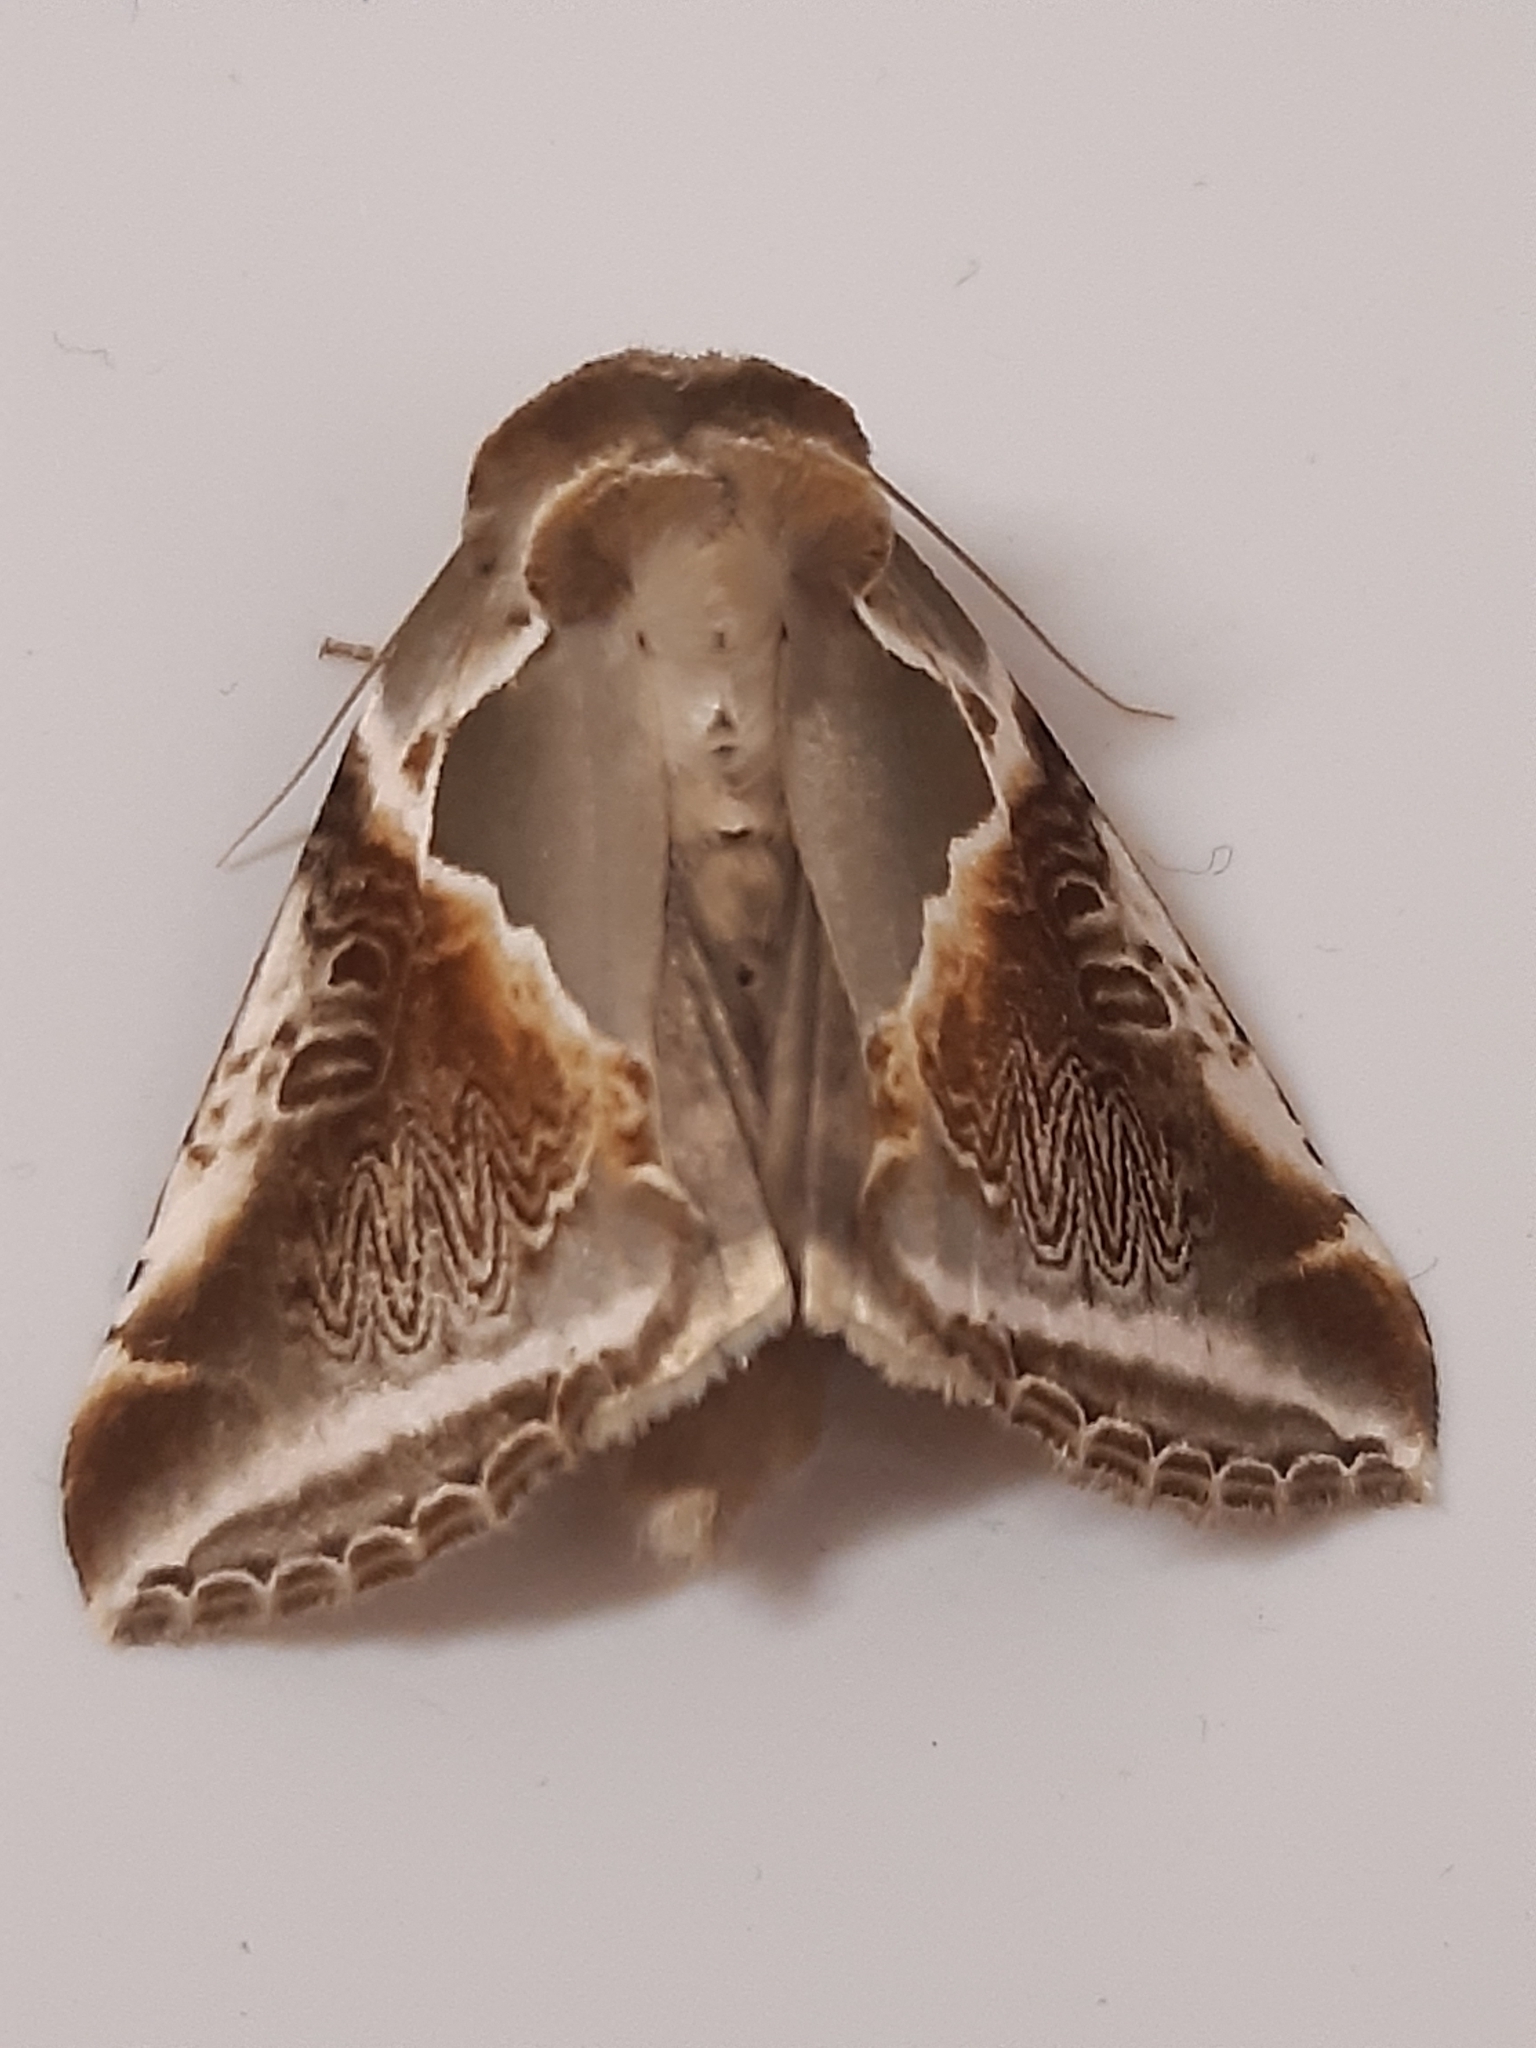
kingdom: Animalia
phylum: Arthropoda
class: Insecta
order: Lepidoptera
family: Drepanidae
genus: Habrosyne
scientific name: Habrosyne pyritoides
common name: Buff arches
